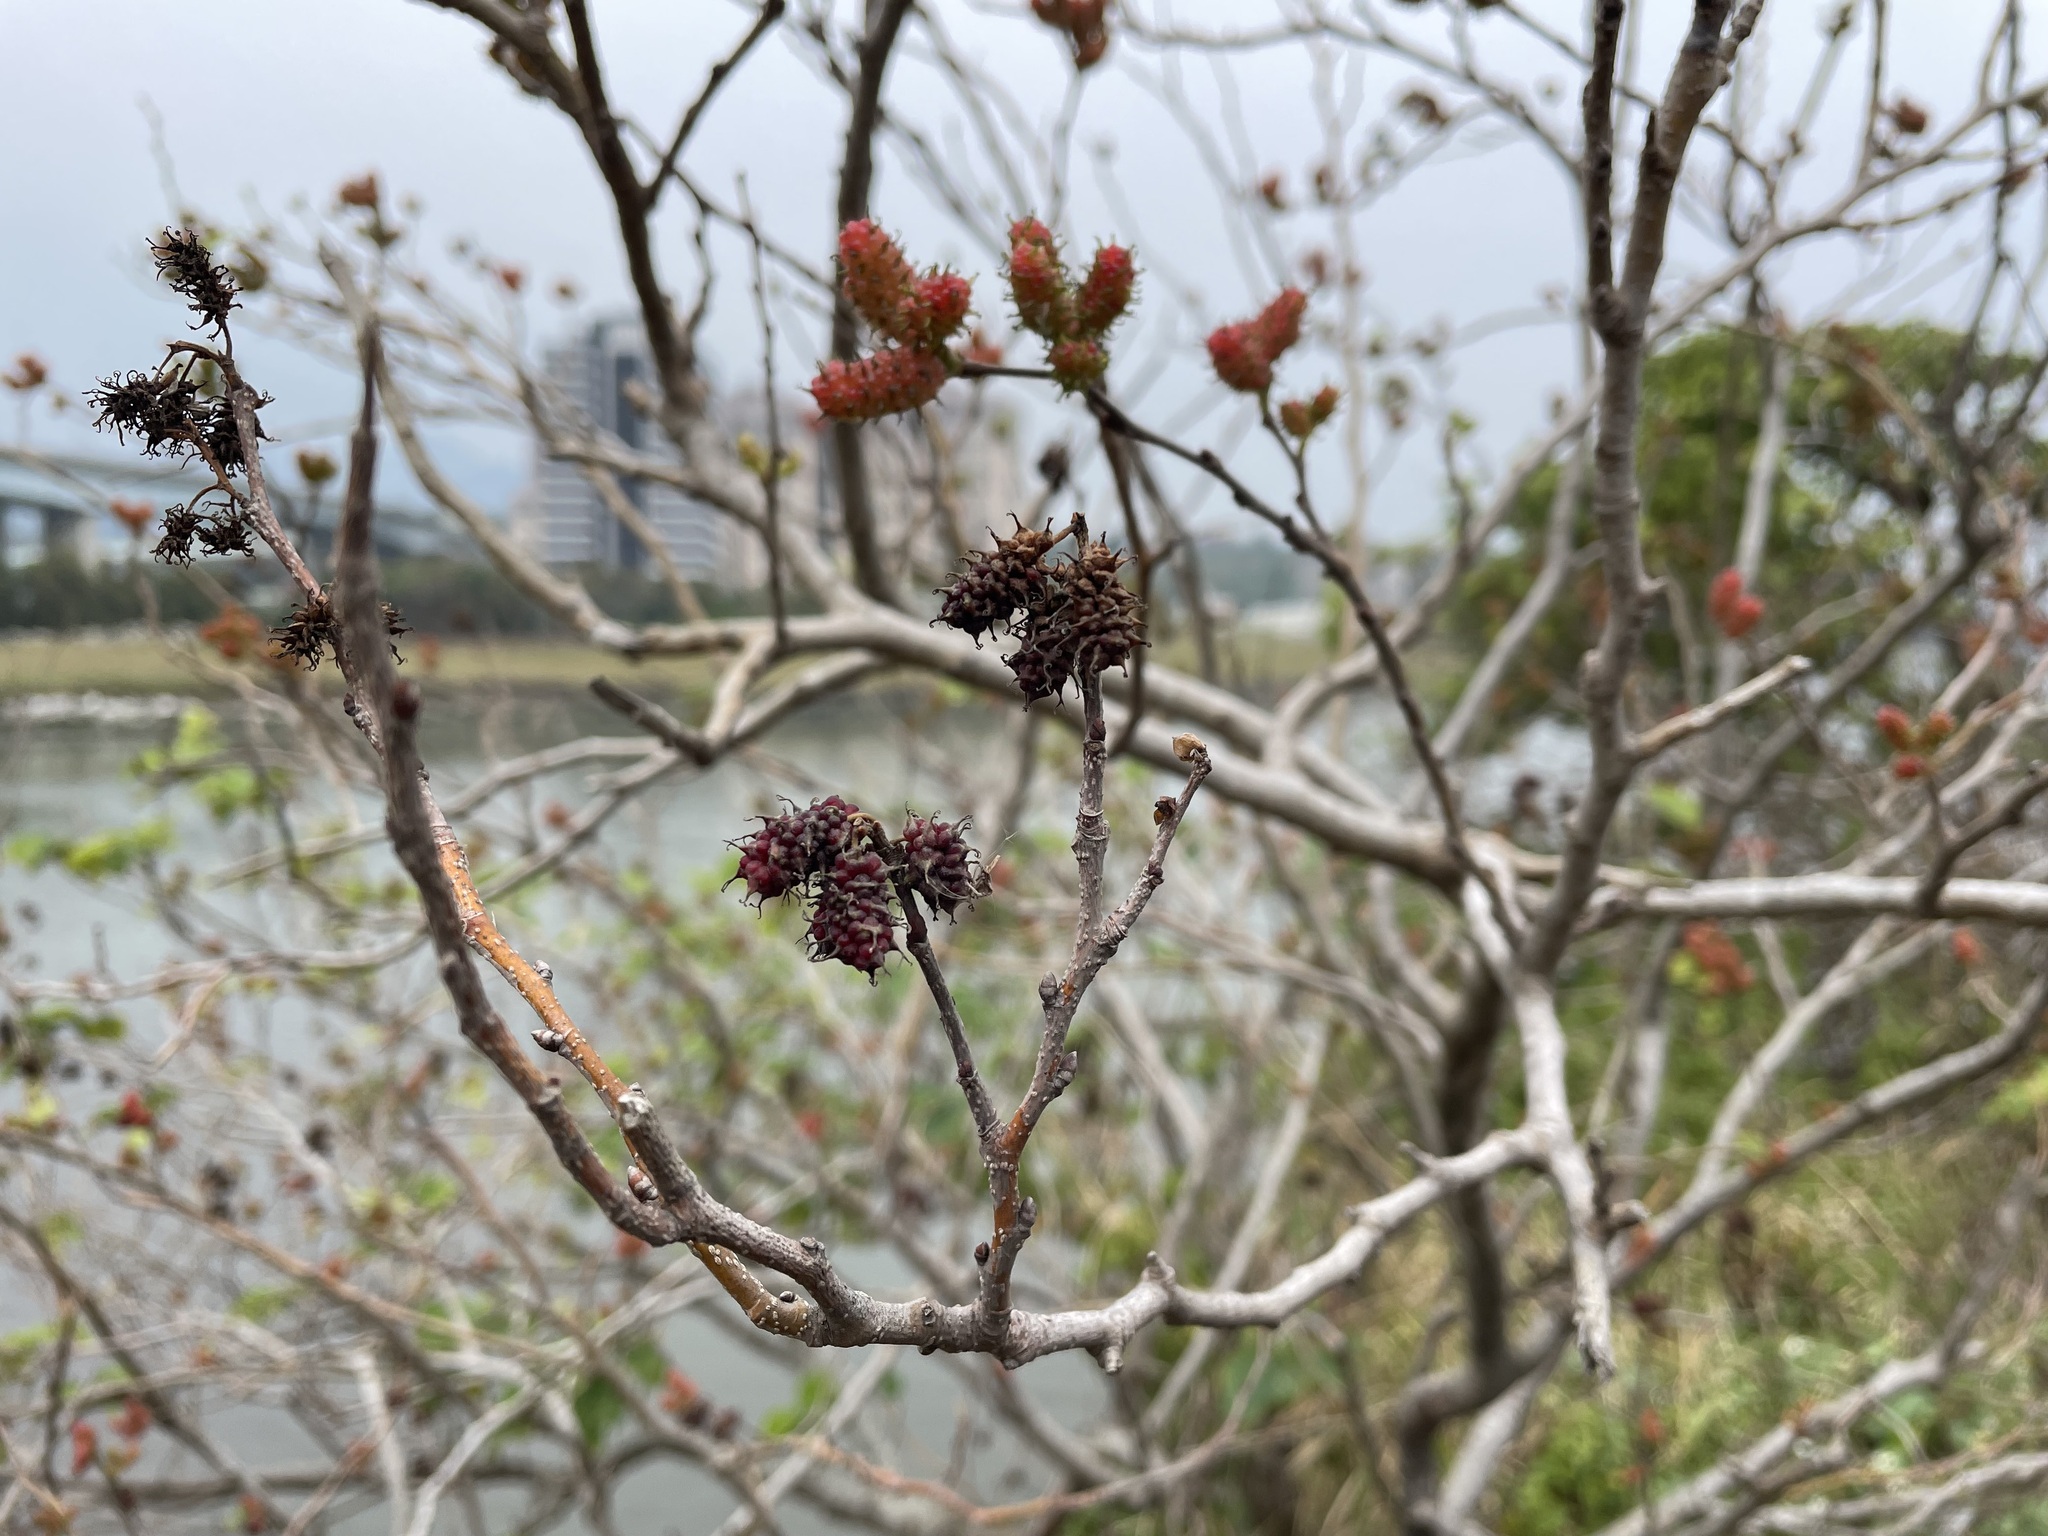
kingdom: Plantae
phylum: Tracheophyta
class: Magnoliopsida
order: Rosales
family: Moraceae
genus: Morus
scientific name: Morus indica
